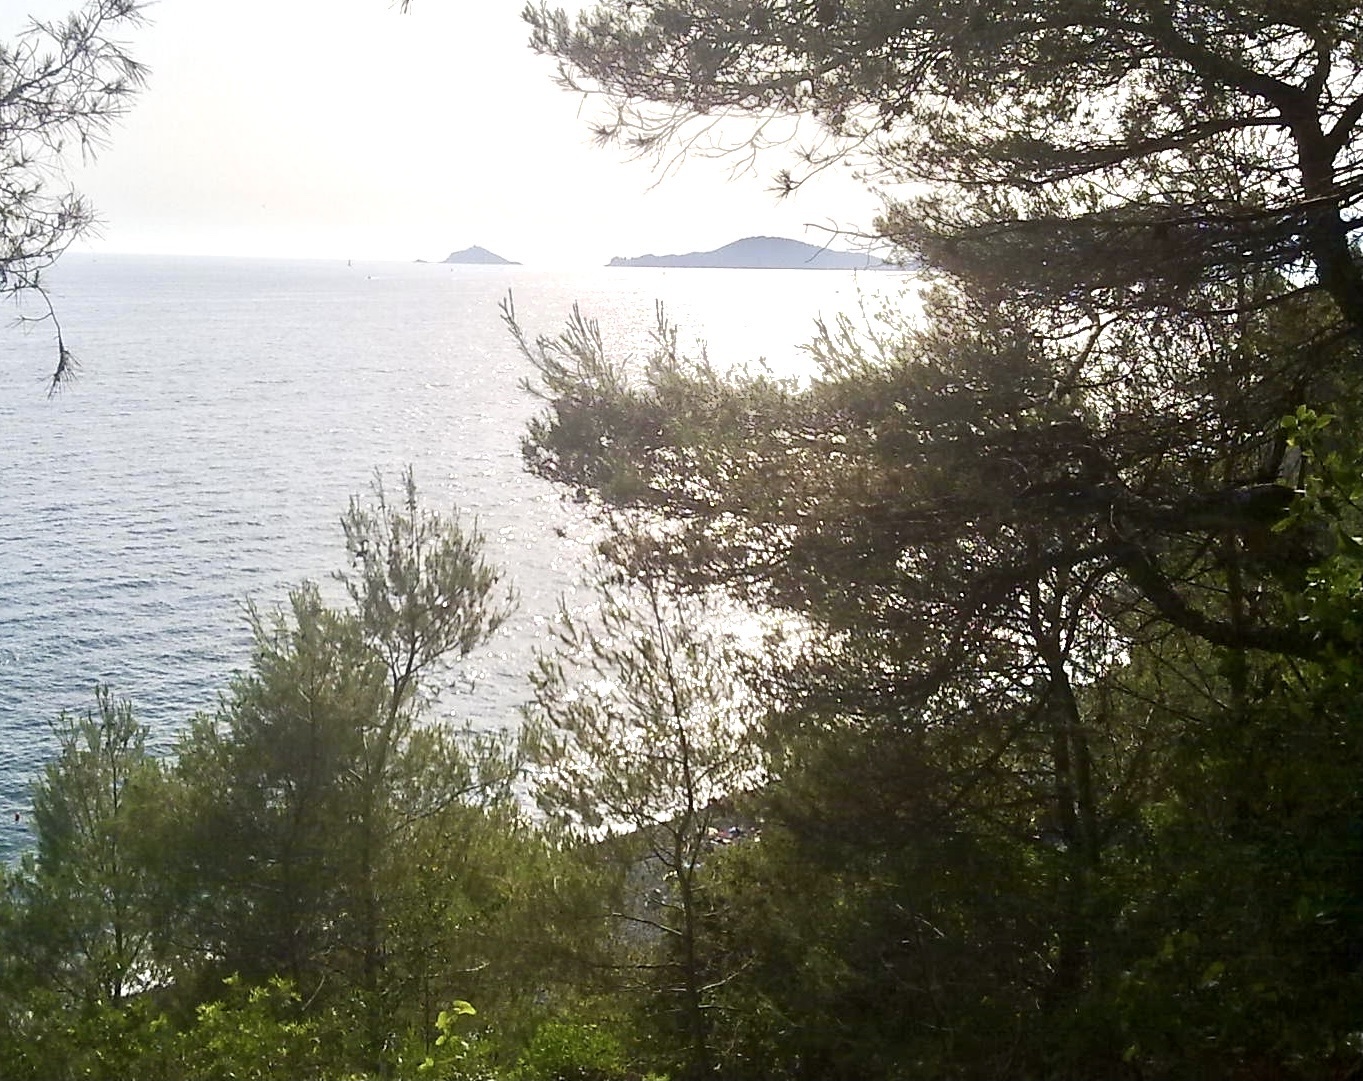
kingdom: Plantae
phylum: Tracheophyta
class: Pinopsida
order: Pinales
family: Pinaceae
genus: Pinus
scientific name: Pinus halepensis
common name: Aleppo pine
